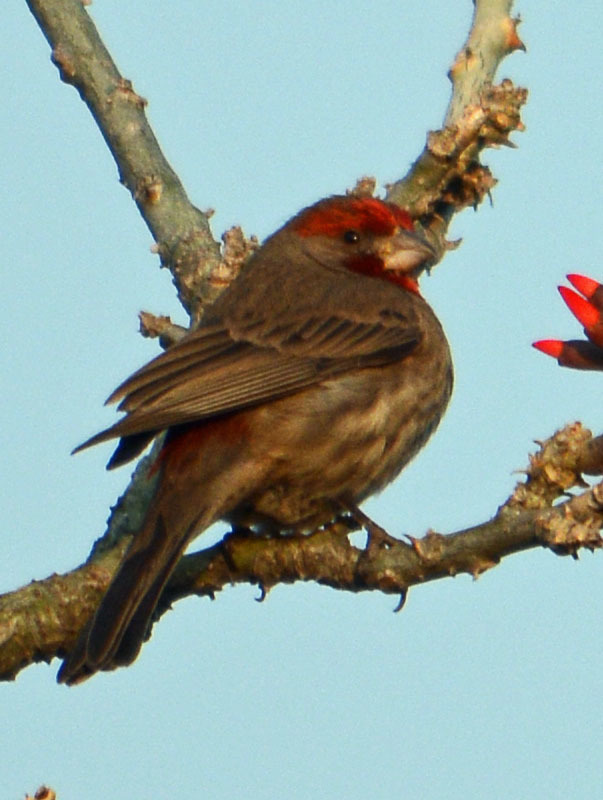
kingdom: Animalia
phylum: Chordata
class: Aves
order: Passeriformes
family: Fringillidae
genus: Haemorhous
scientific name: Haemorhous mexicanus
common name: House finch
